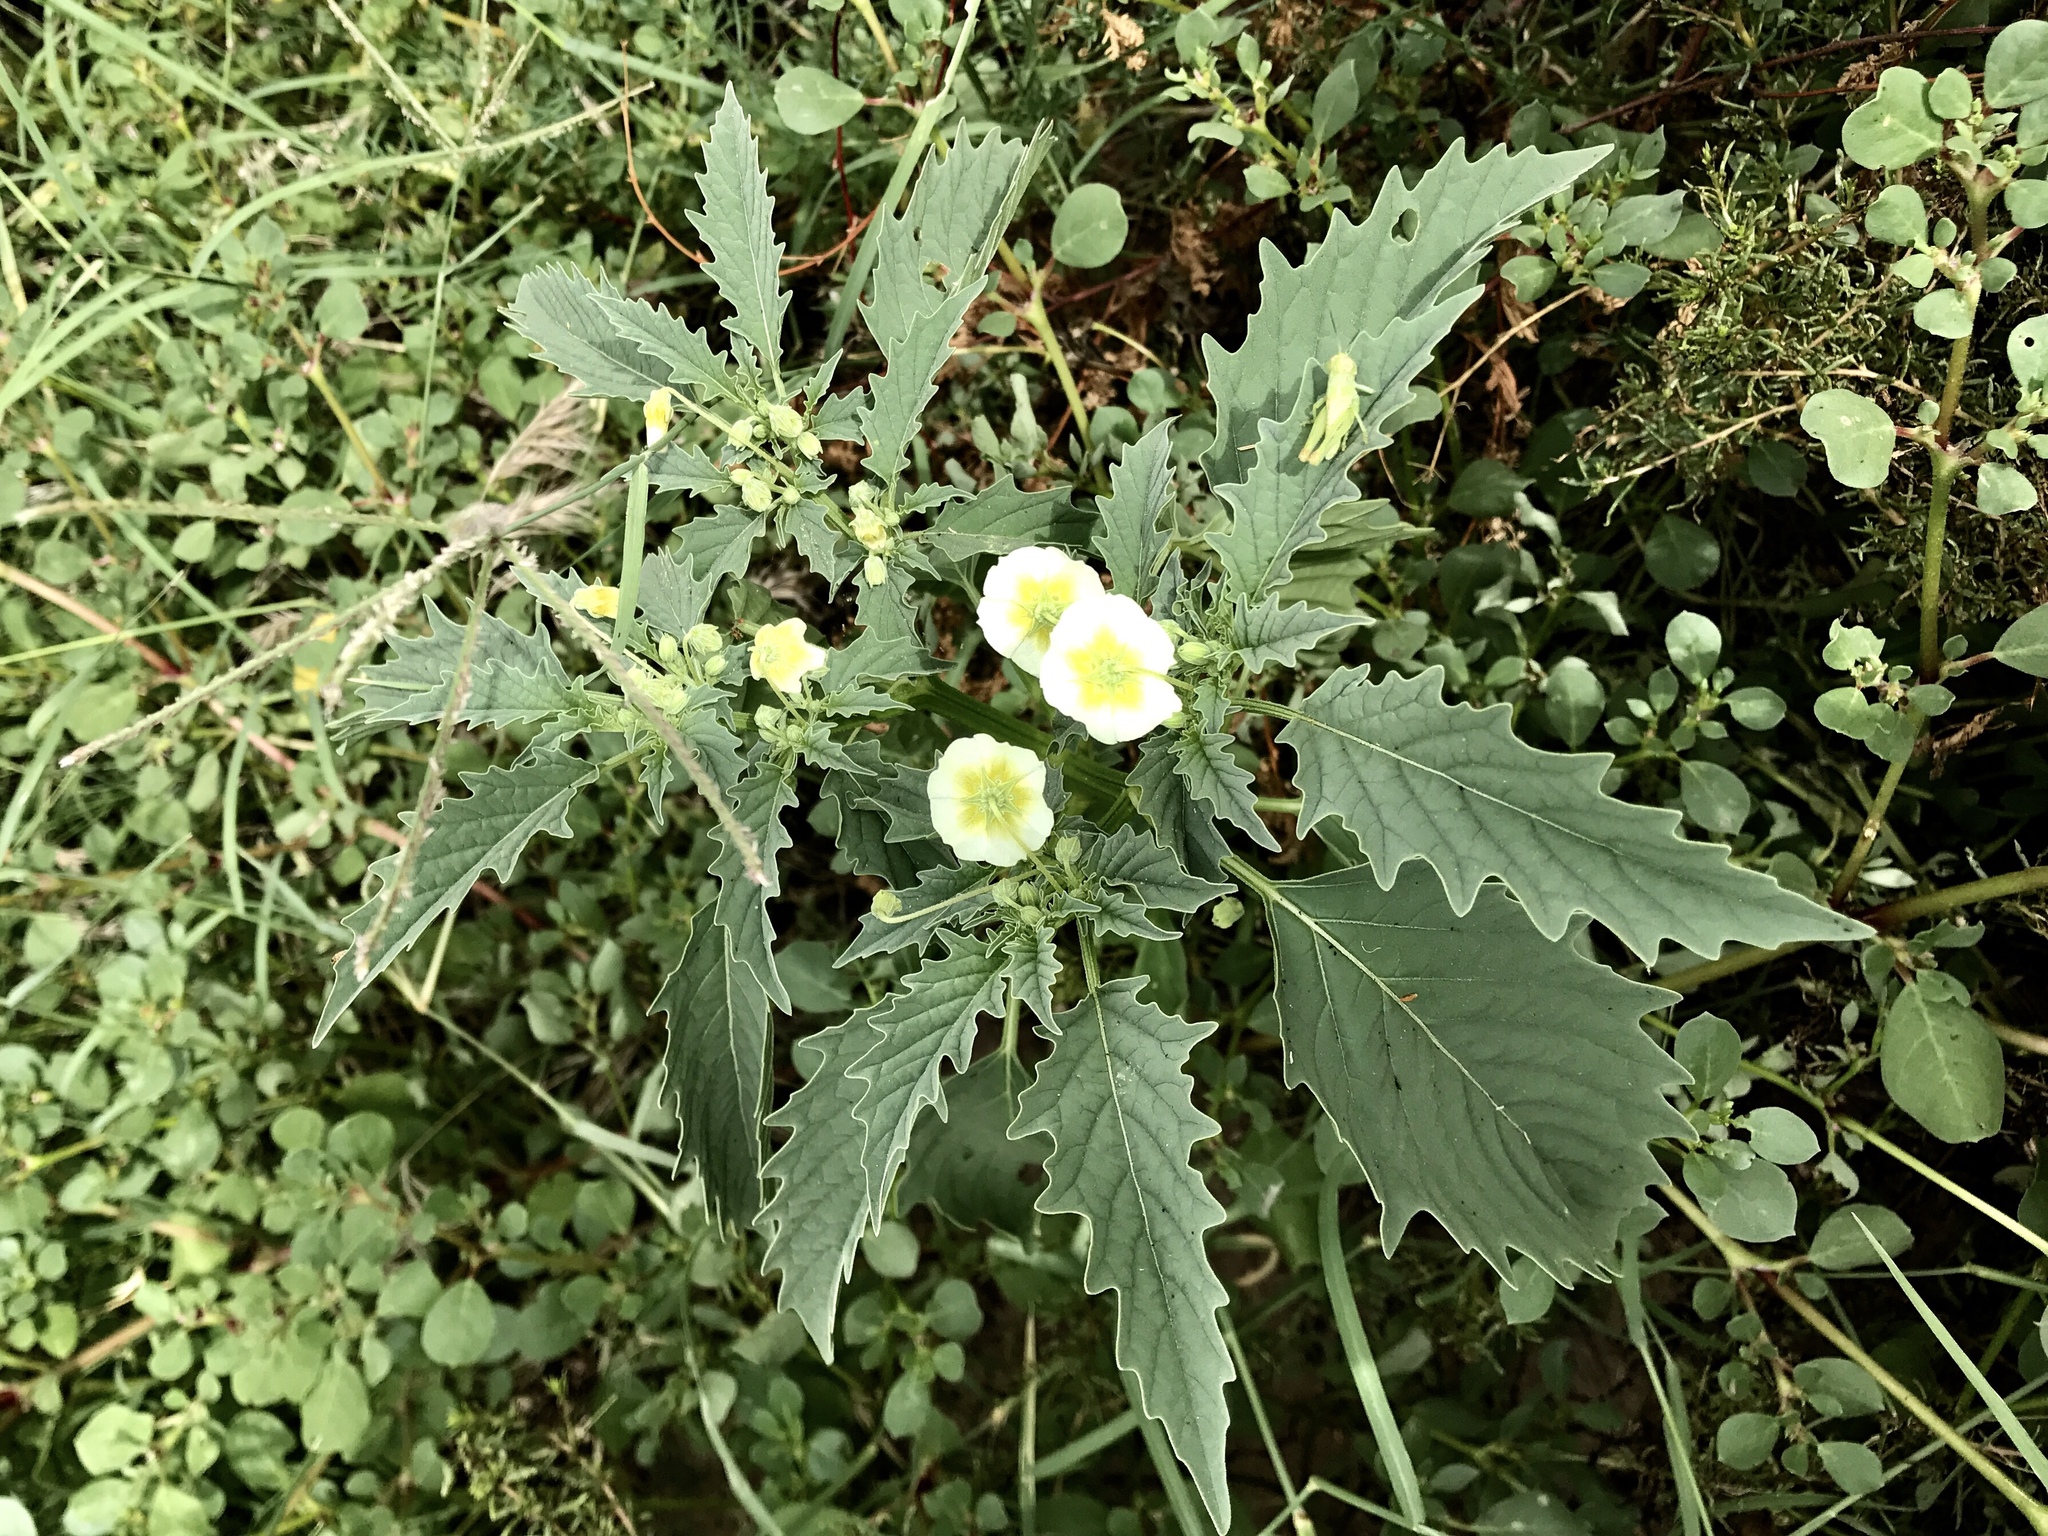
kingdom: Plantae
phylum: Tracheophyta
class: Magnoliopsida
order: Solanales
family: Solanaceae
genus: Physalis
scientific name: Physalis acutifolia
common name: Wright's ground-cherry
